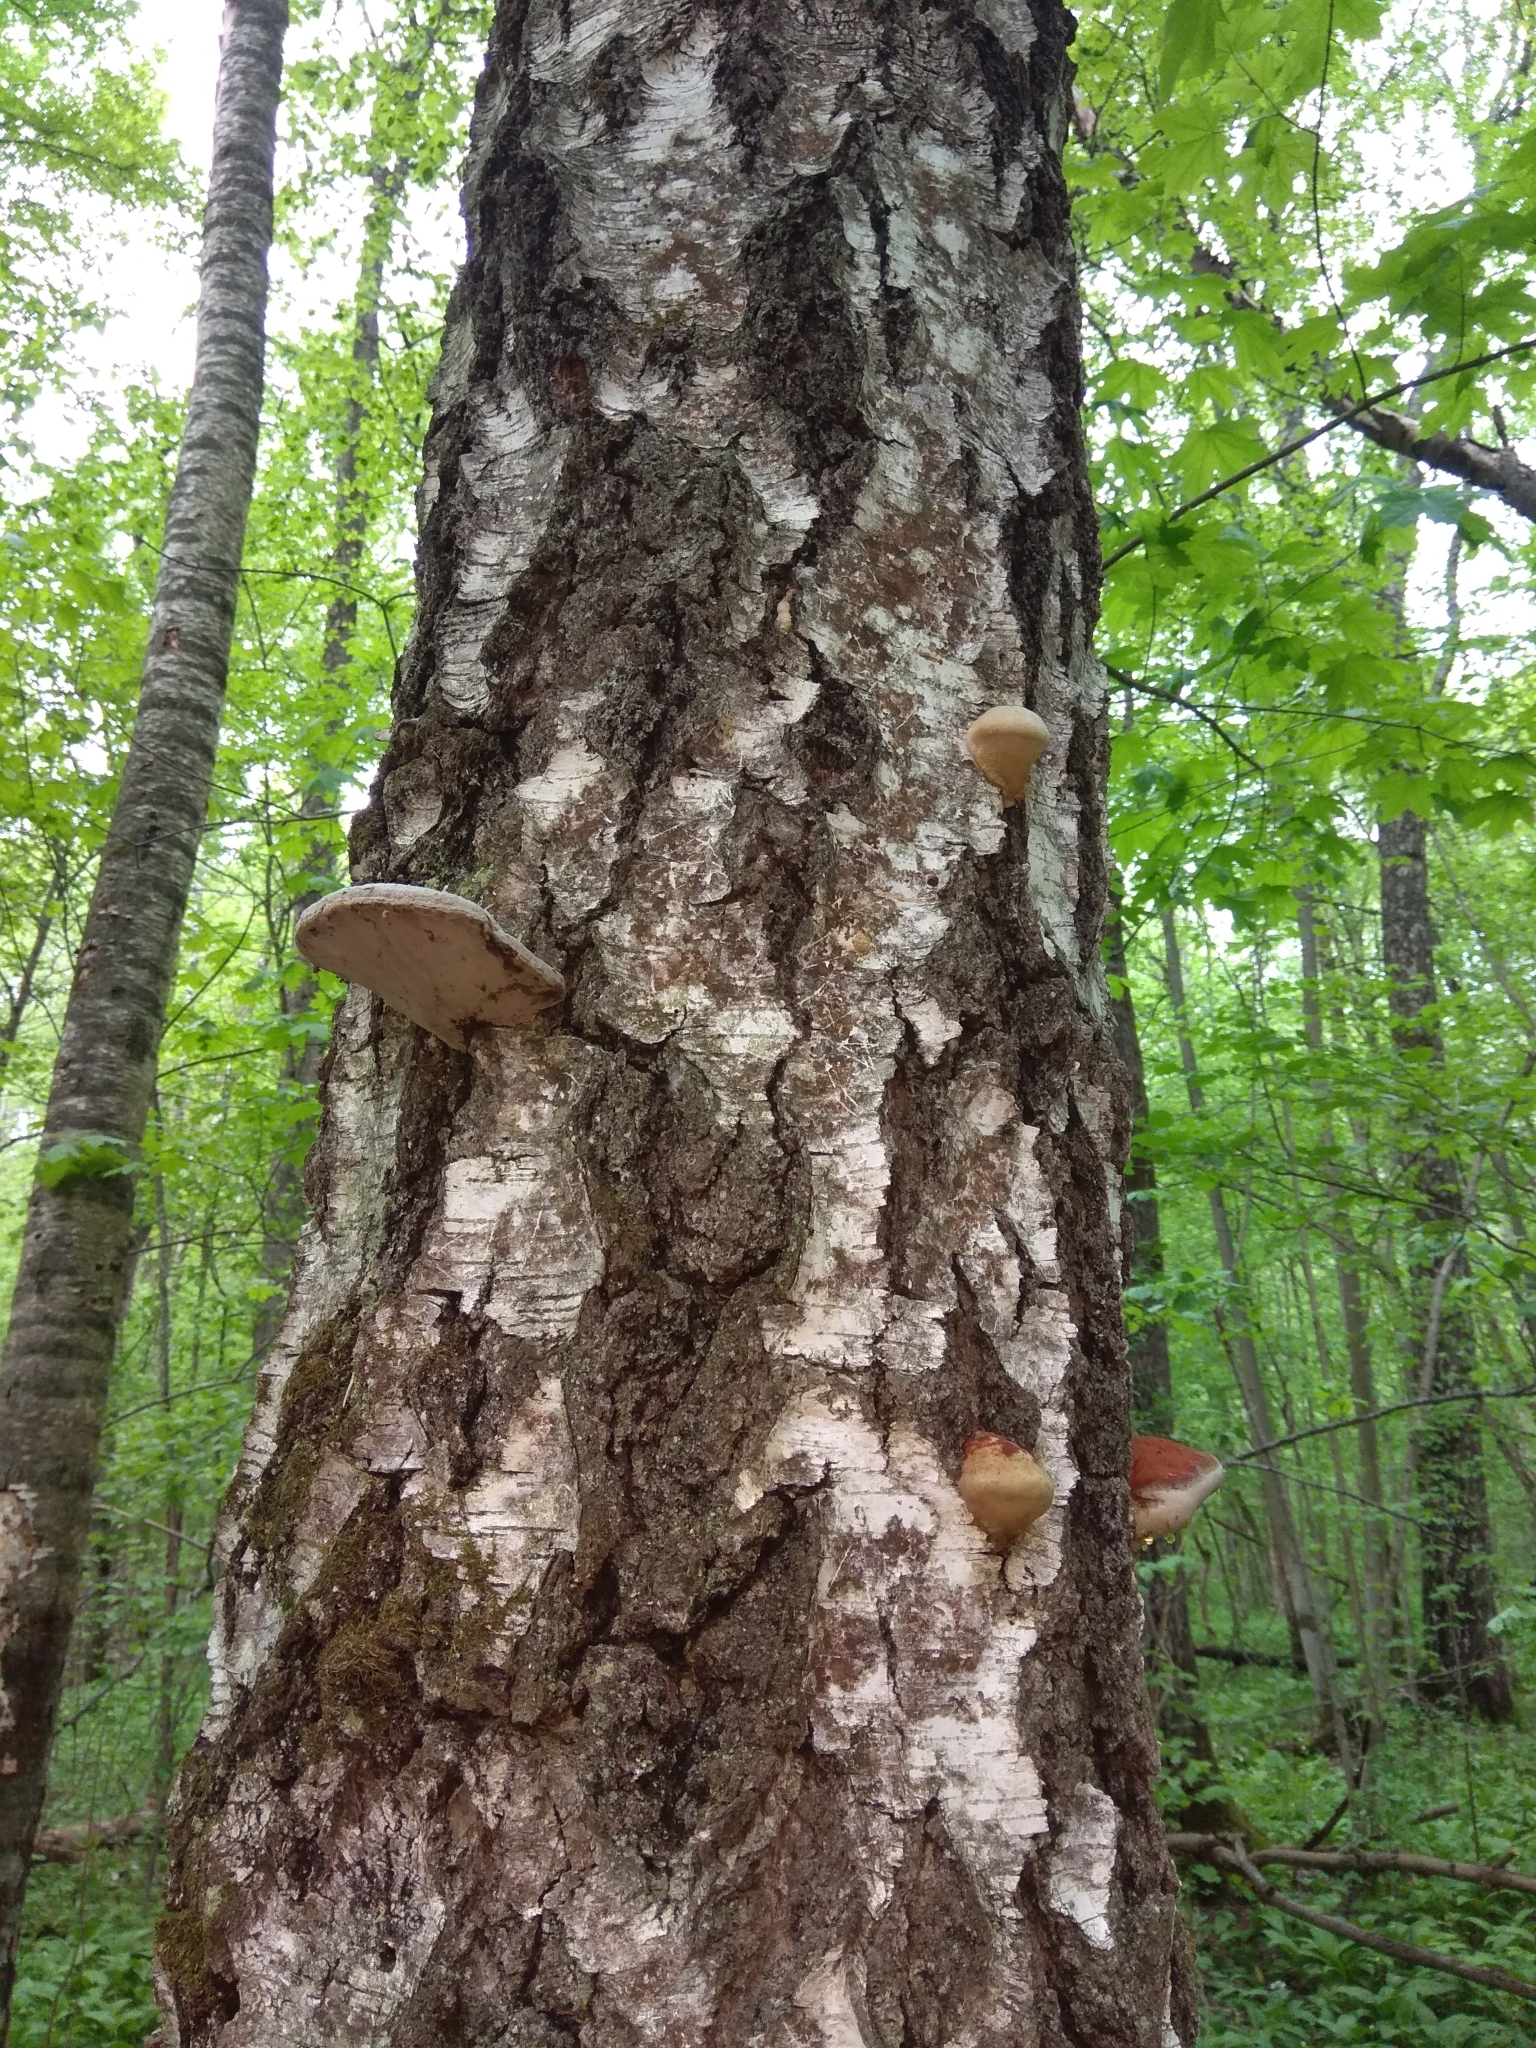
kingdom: Fungi
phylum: Basidiomycota
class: Agaricomycetes
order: Polyporales
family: Fomitopsidaceae
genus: Fomitopsis
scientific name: Fomitopsis pinicola
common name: Red-belted bracket
